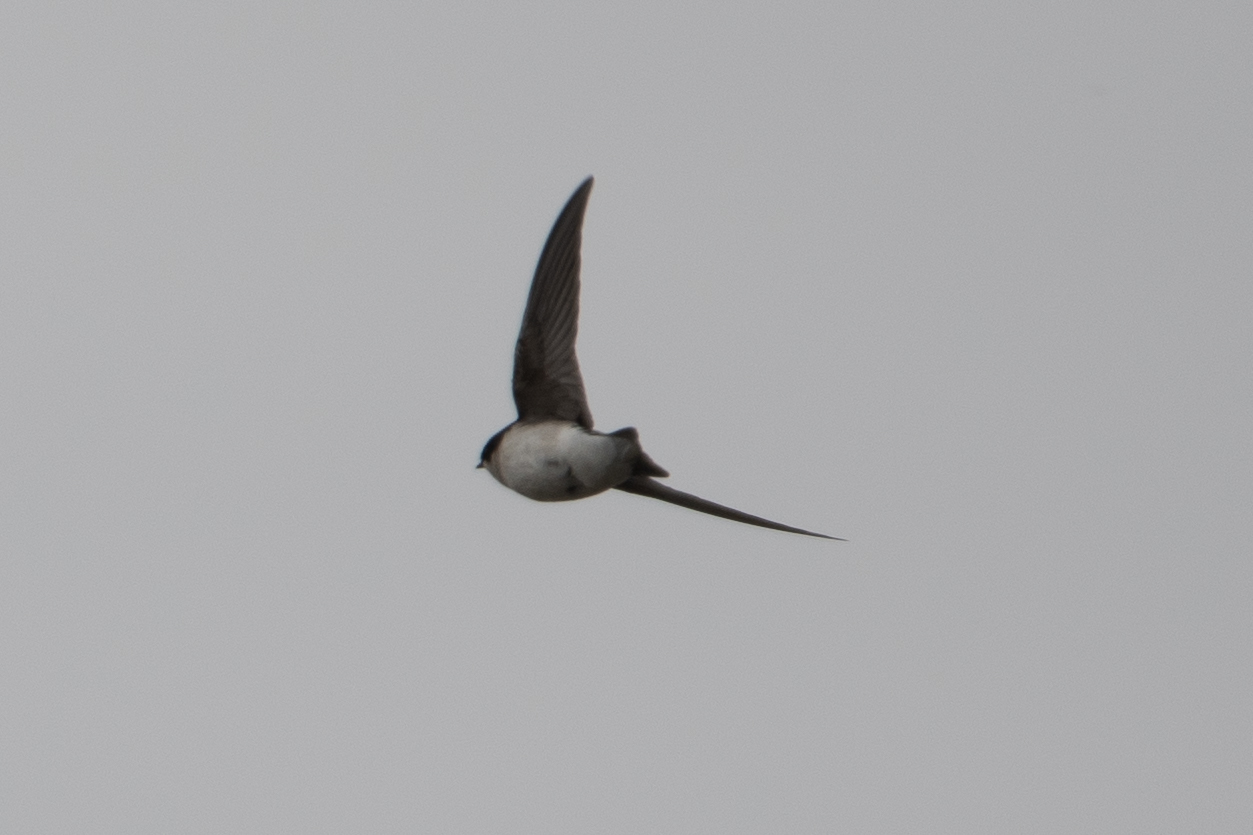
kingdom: Animalia
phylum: Chordata
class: Aves
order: Passeriformes
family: Hirundinidae
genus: Tachycineta
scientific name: Tachycineta bicolor
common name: Tree swallow
